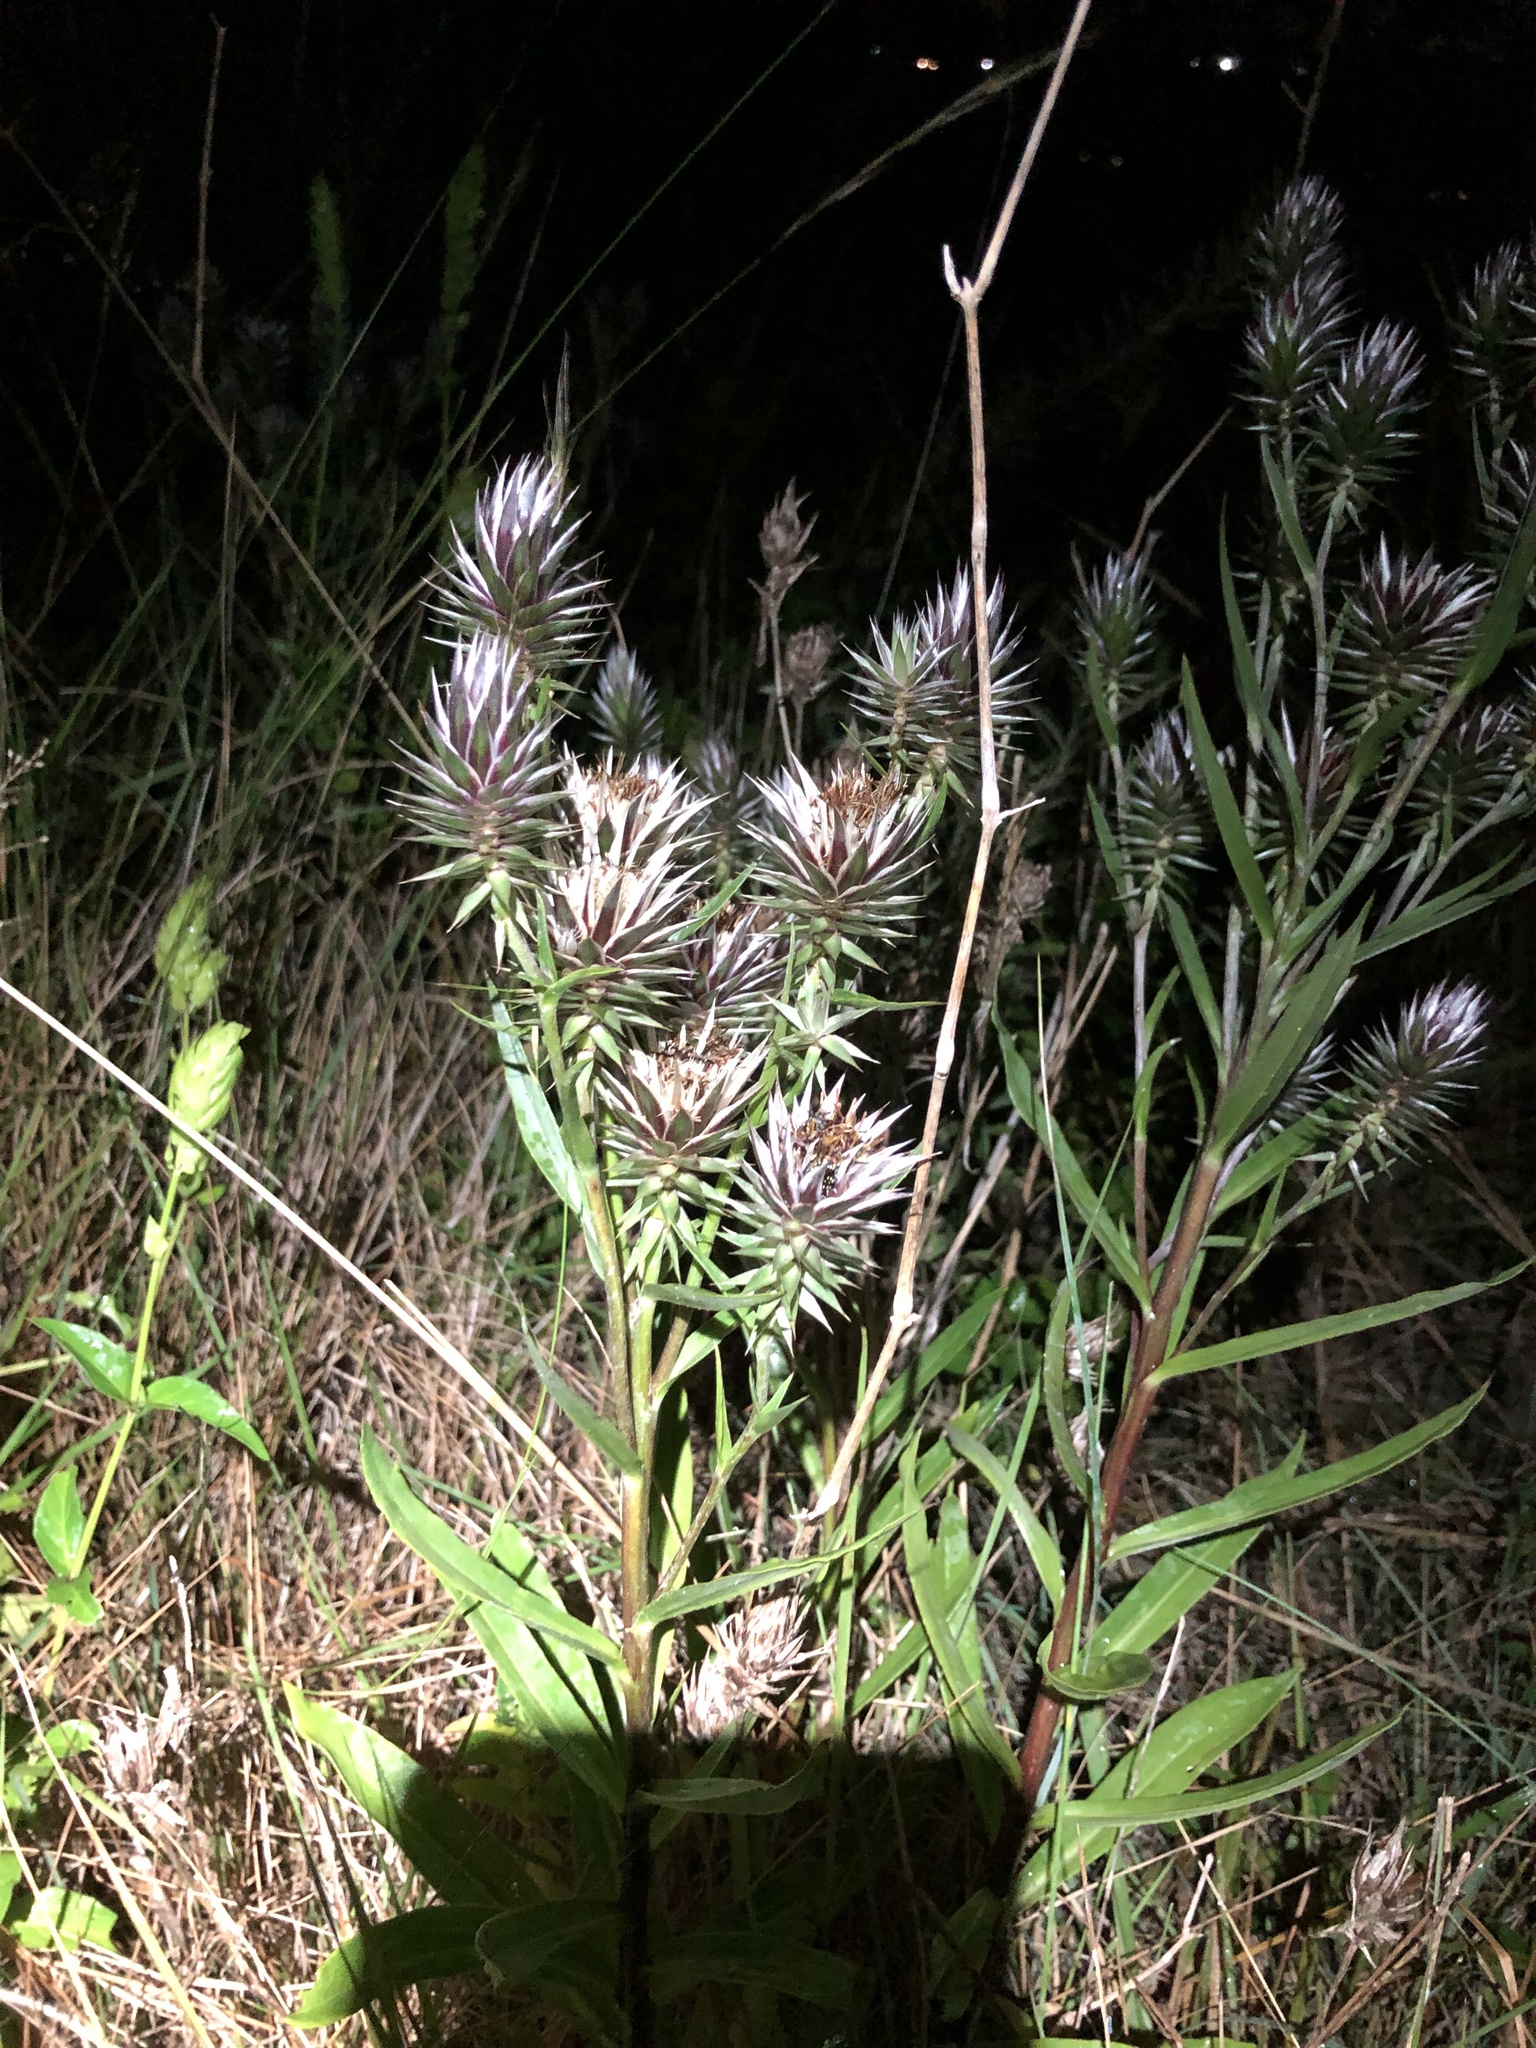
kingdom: Plantae
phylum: Tracheophyta
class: Magnoliopsida
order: Asterales
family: Asteraceae
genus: Macledium
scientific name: Macledium speciosum
